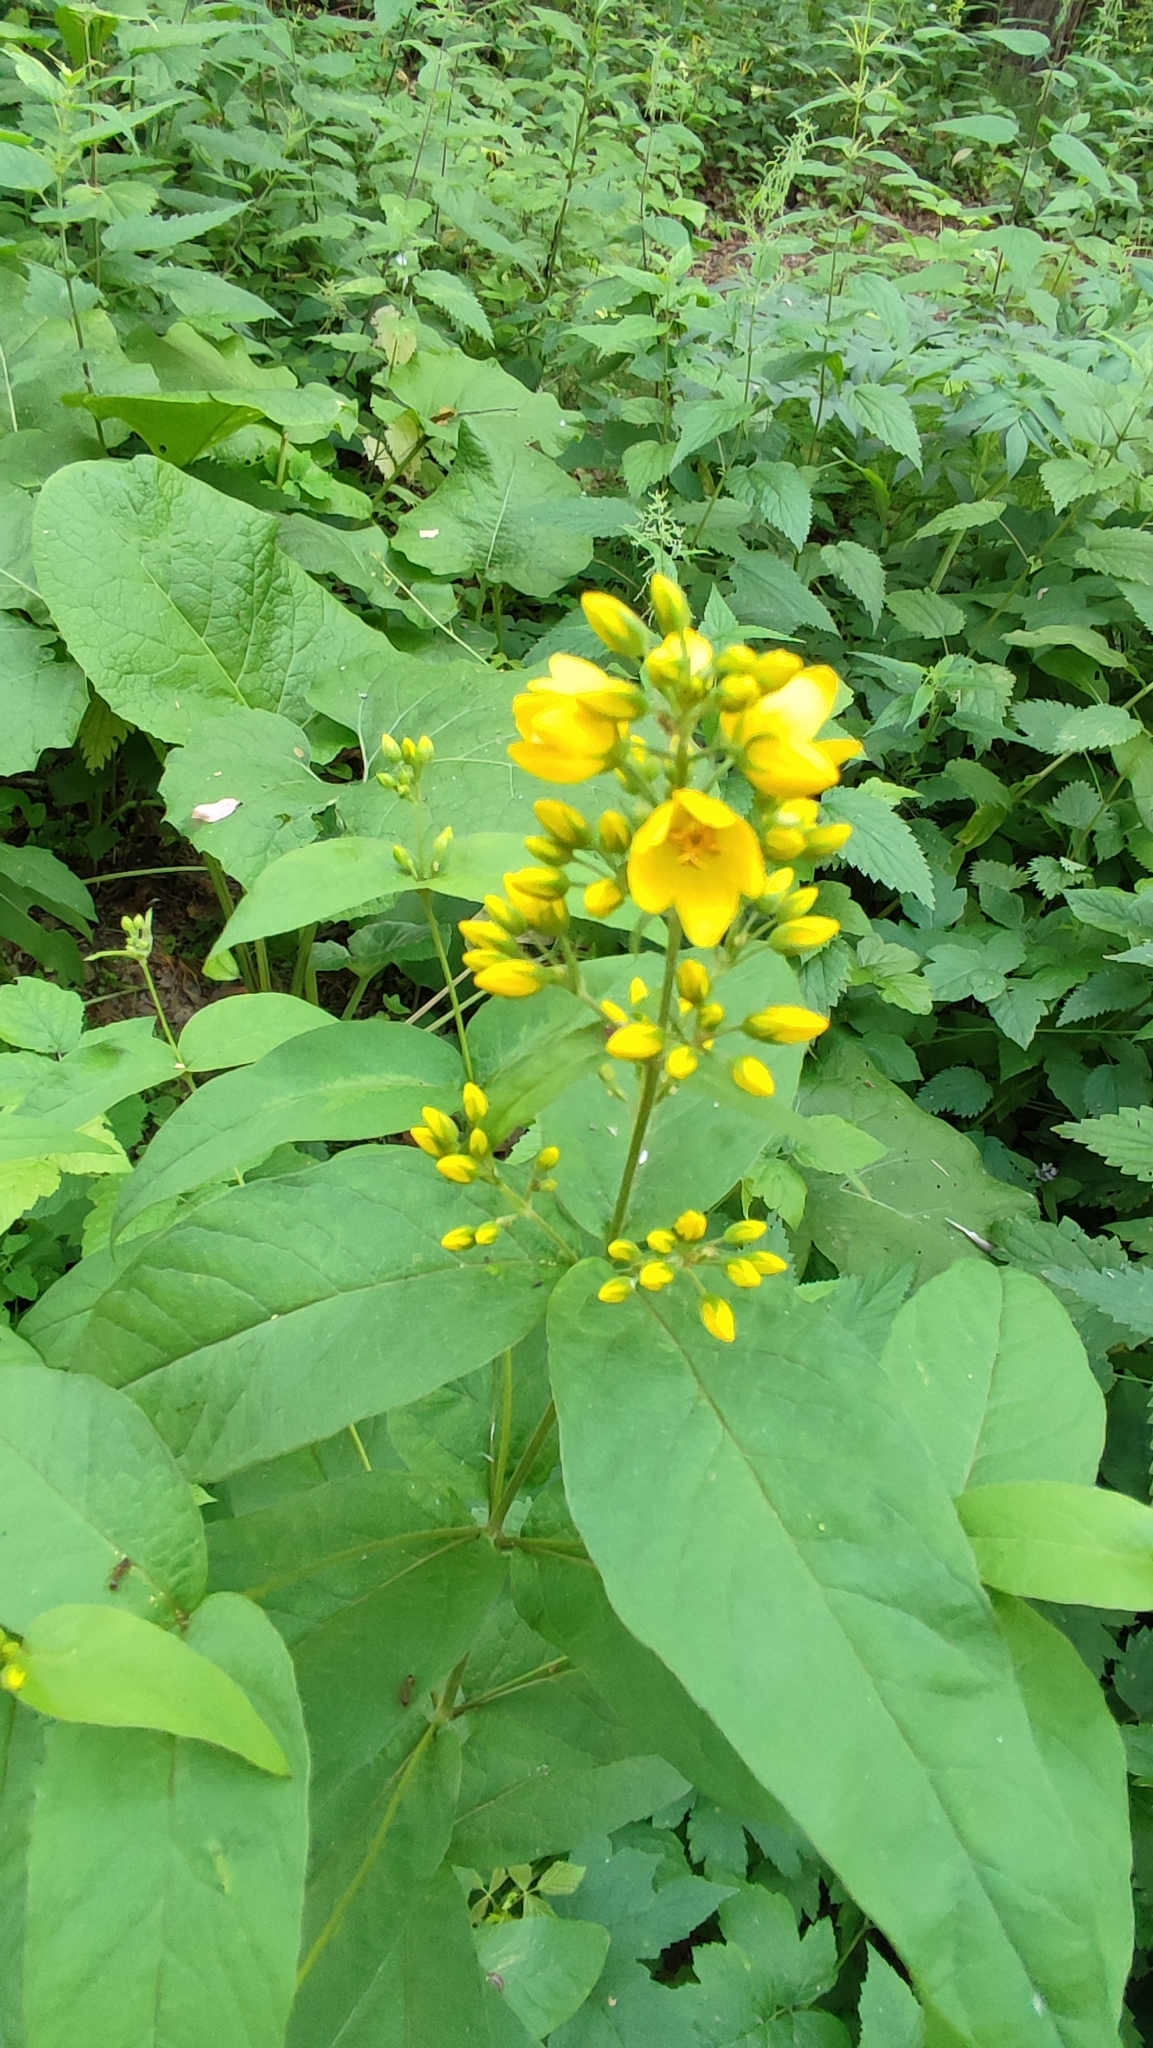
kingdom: Plantae
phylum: Tracheophyta
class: Magnoliopsida
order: Ericales
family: Primulaceae
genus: Lysimachia
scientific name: Lysimachia vulgaris
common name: Yellow loosestrife
